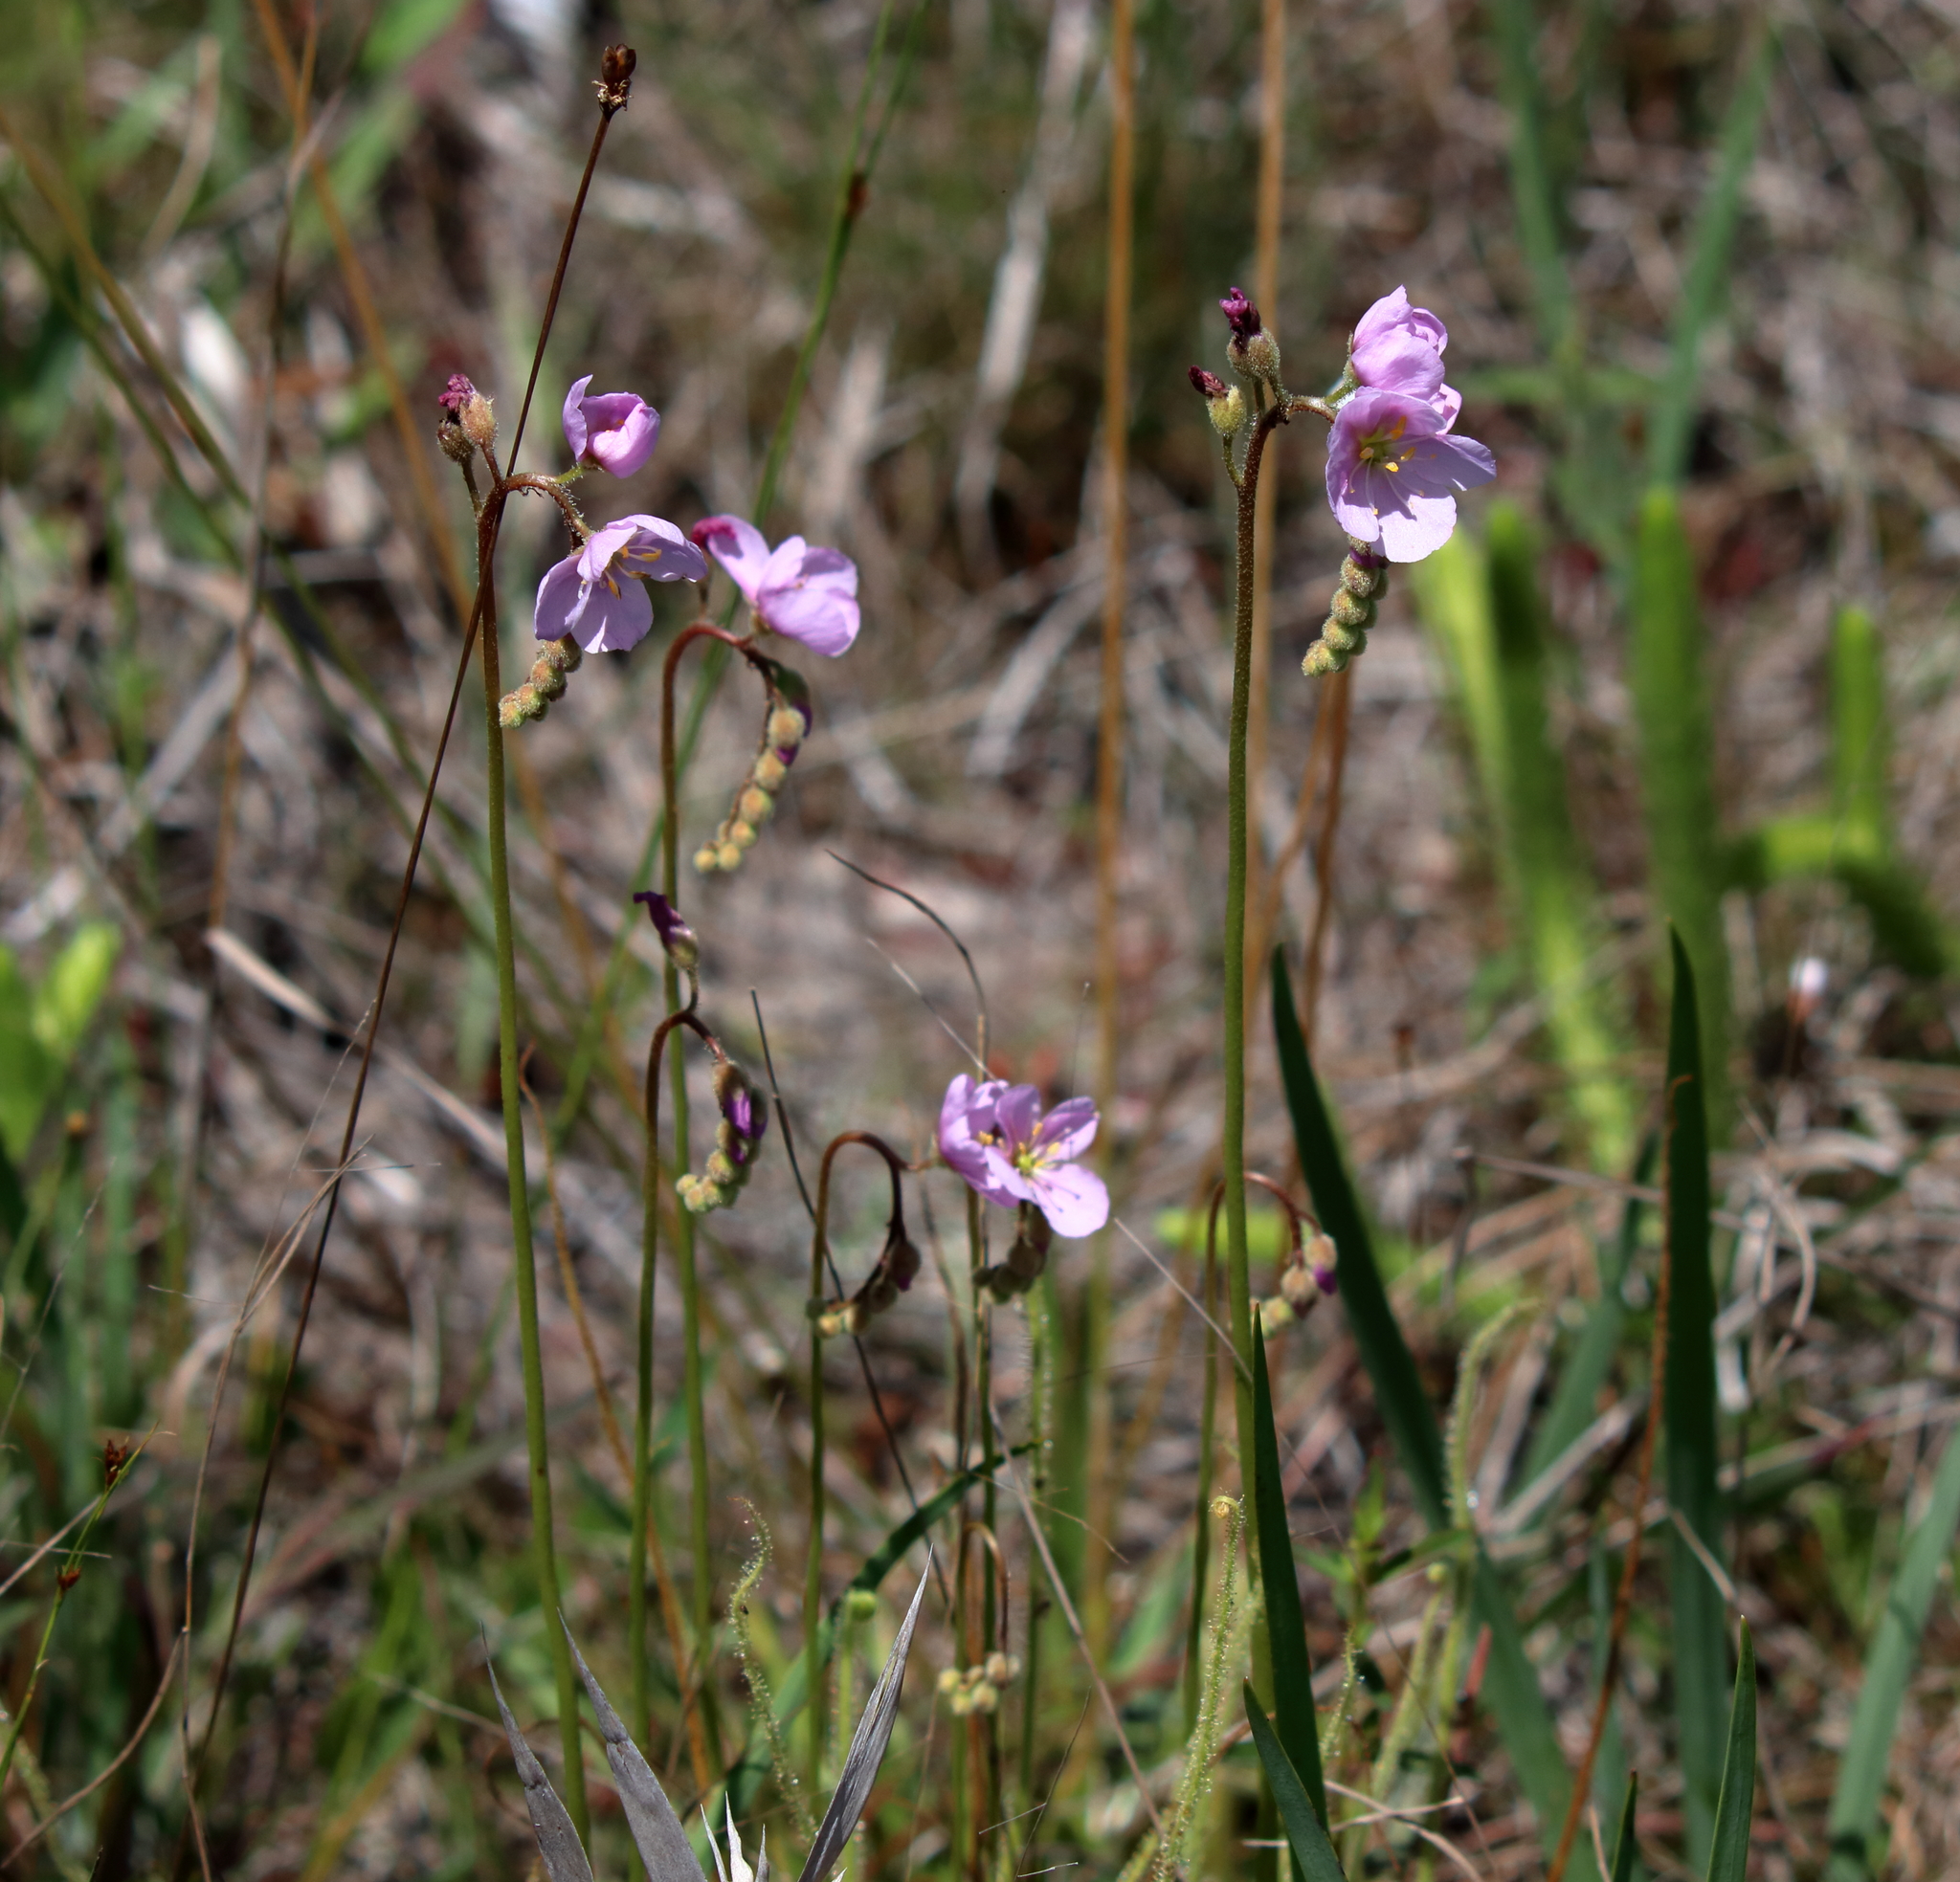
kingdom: Plantae
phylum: Tracheophyta
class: Magnoliopsida
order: Caryophyllales
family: Droseraceae
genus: Drosera
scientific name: Drosera filiformis
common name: Dew-thread
